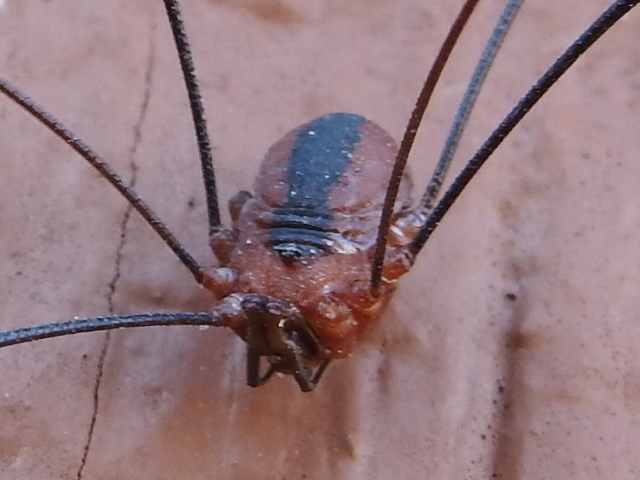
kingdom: Animalia
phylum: Arthropoda
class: Arachnida
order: Opiliones
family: Sclerosomatidae
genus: Leiobunum
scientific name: Leiobunum vittatum
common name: Eastern harvestman
